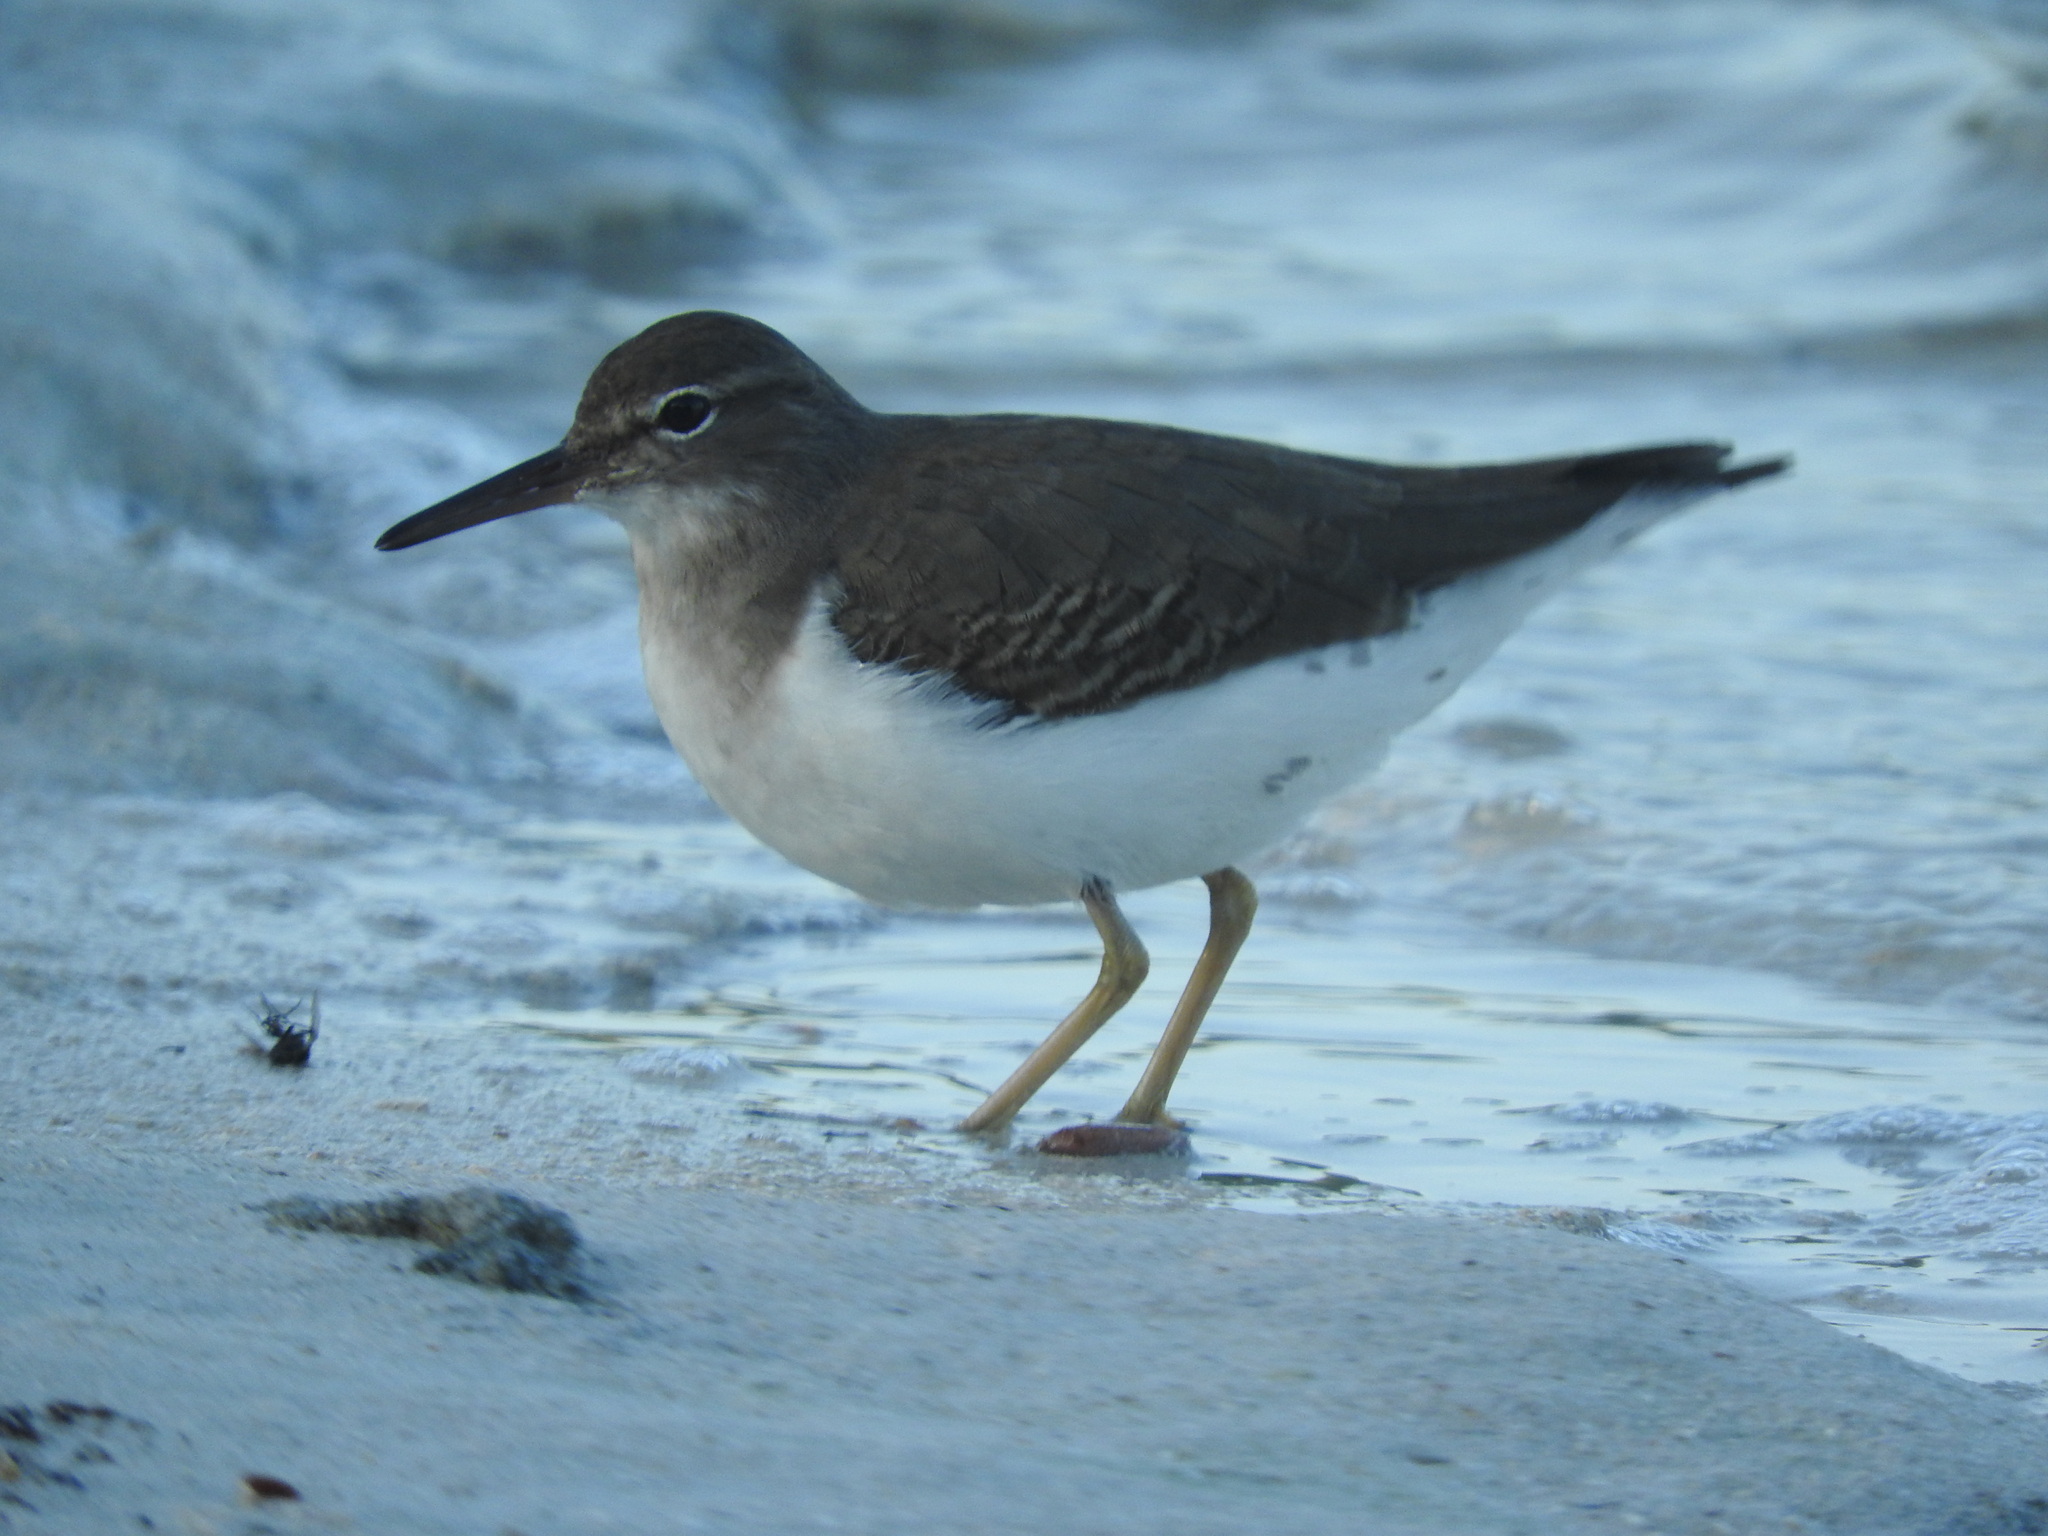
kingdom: Animalia
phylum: Chordata
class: Aves
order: Charadriiformes
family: Scolopacidae
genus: Actitis
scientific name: Actitis macularius
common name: Spotted sandpiper
